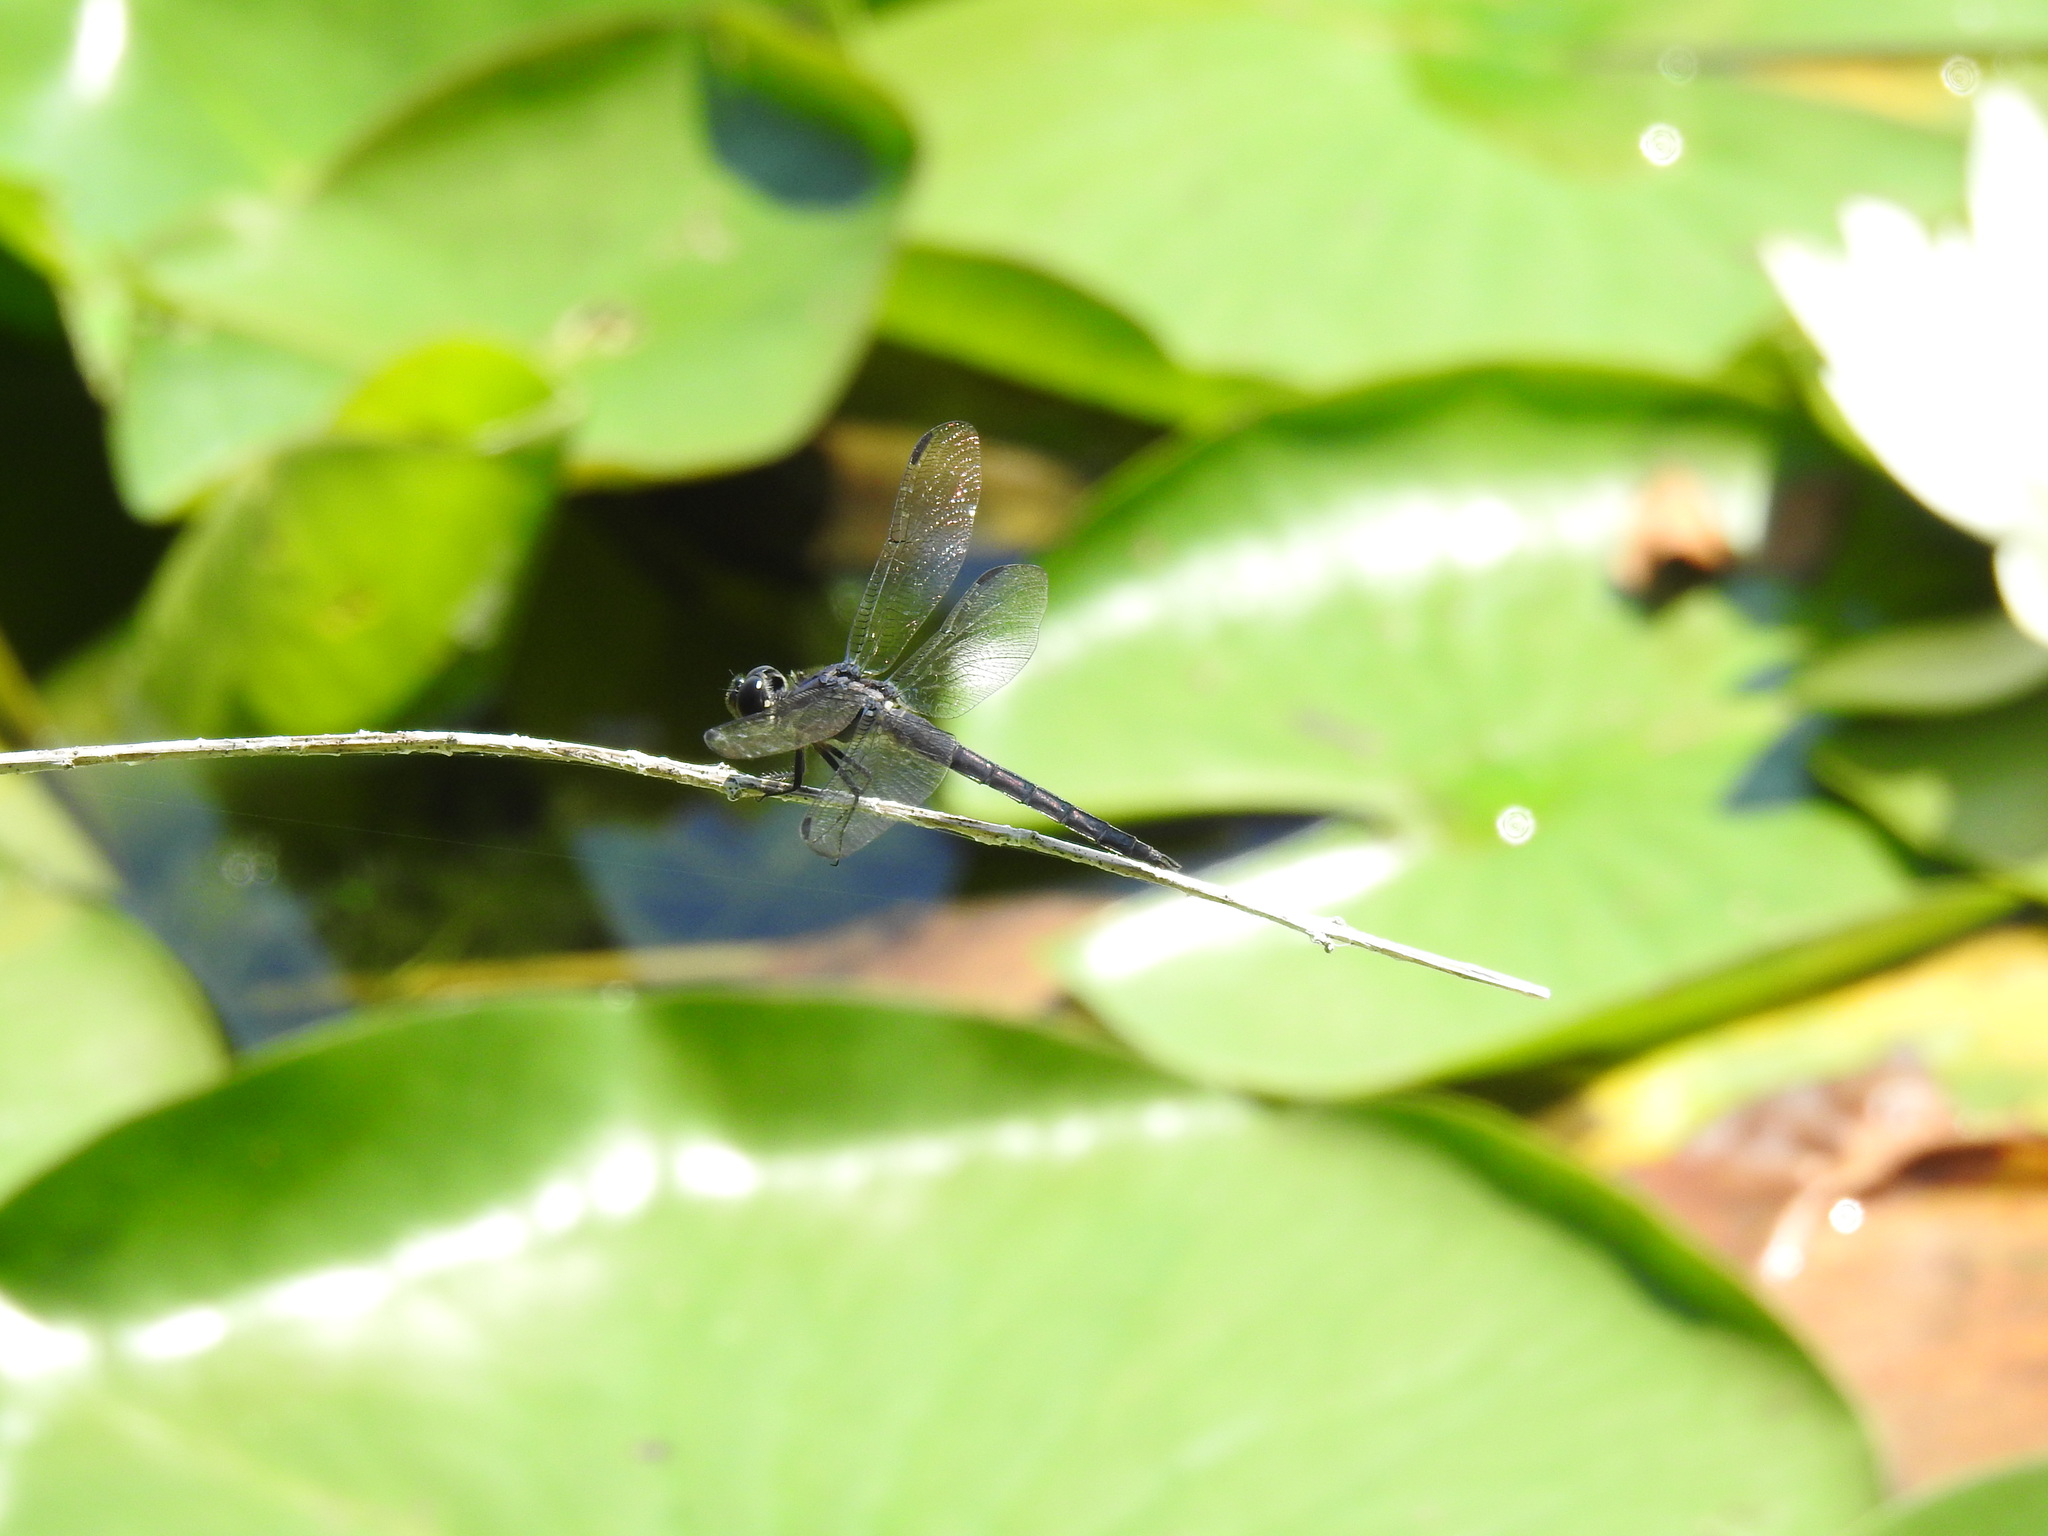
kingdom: Animalia
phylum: Arthropoda
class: Insecta
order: Odonata
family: Libellulidae
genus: Libellula
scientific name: Libellula incesta
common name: Slaty skimmer
